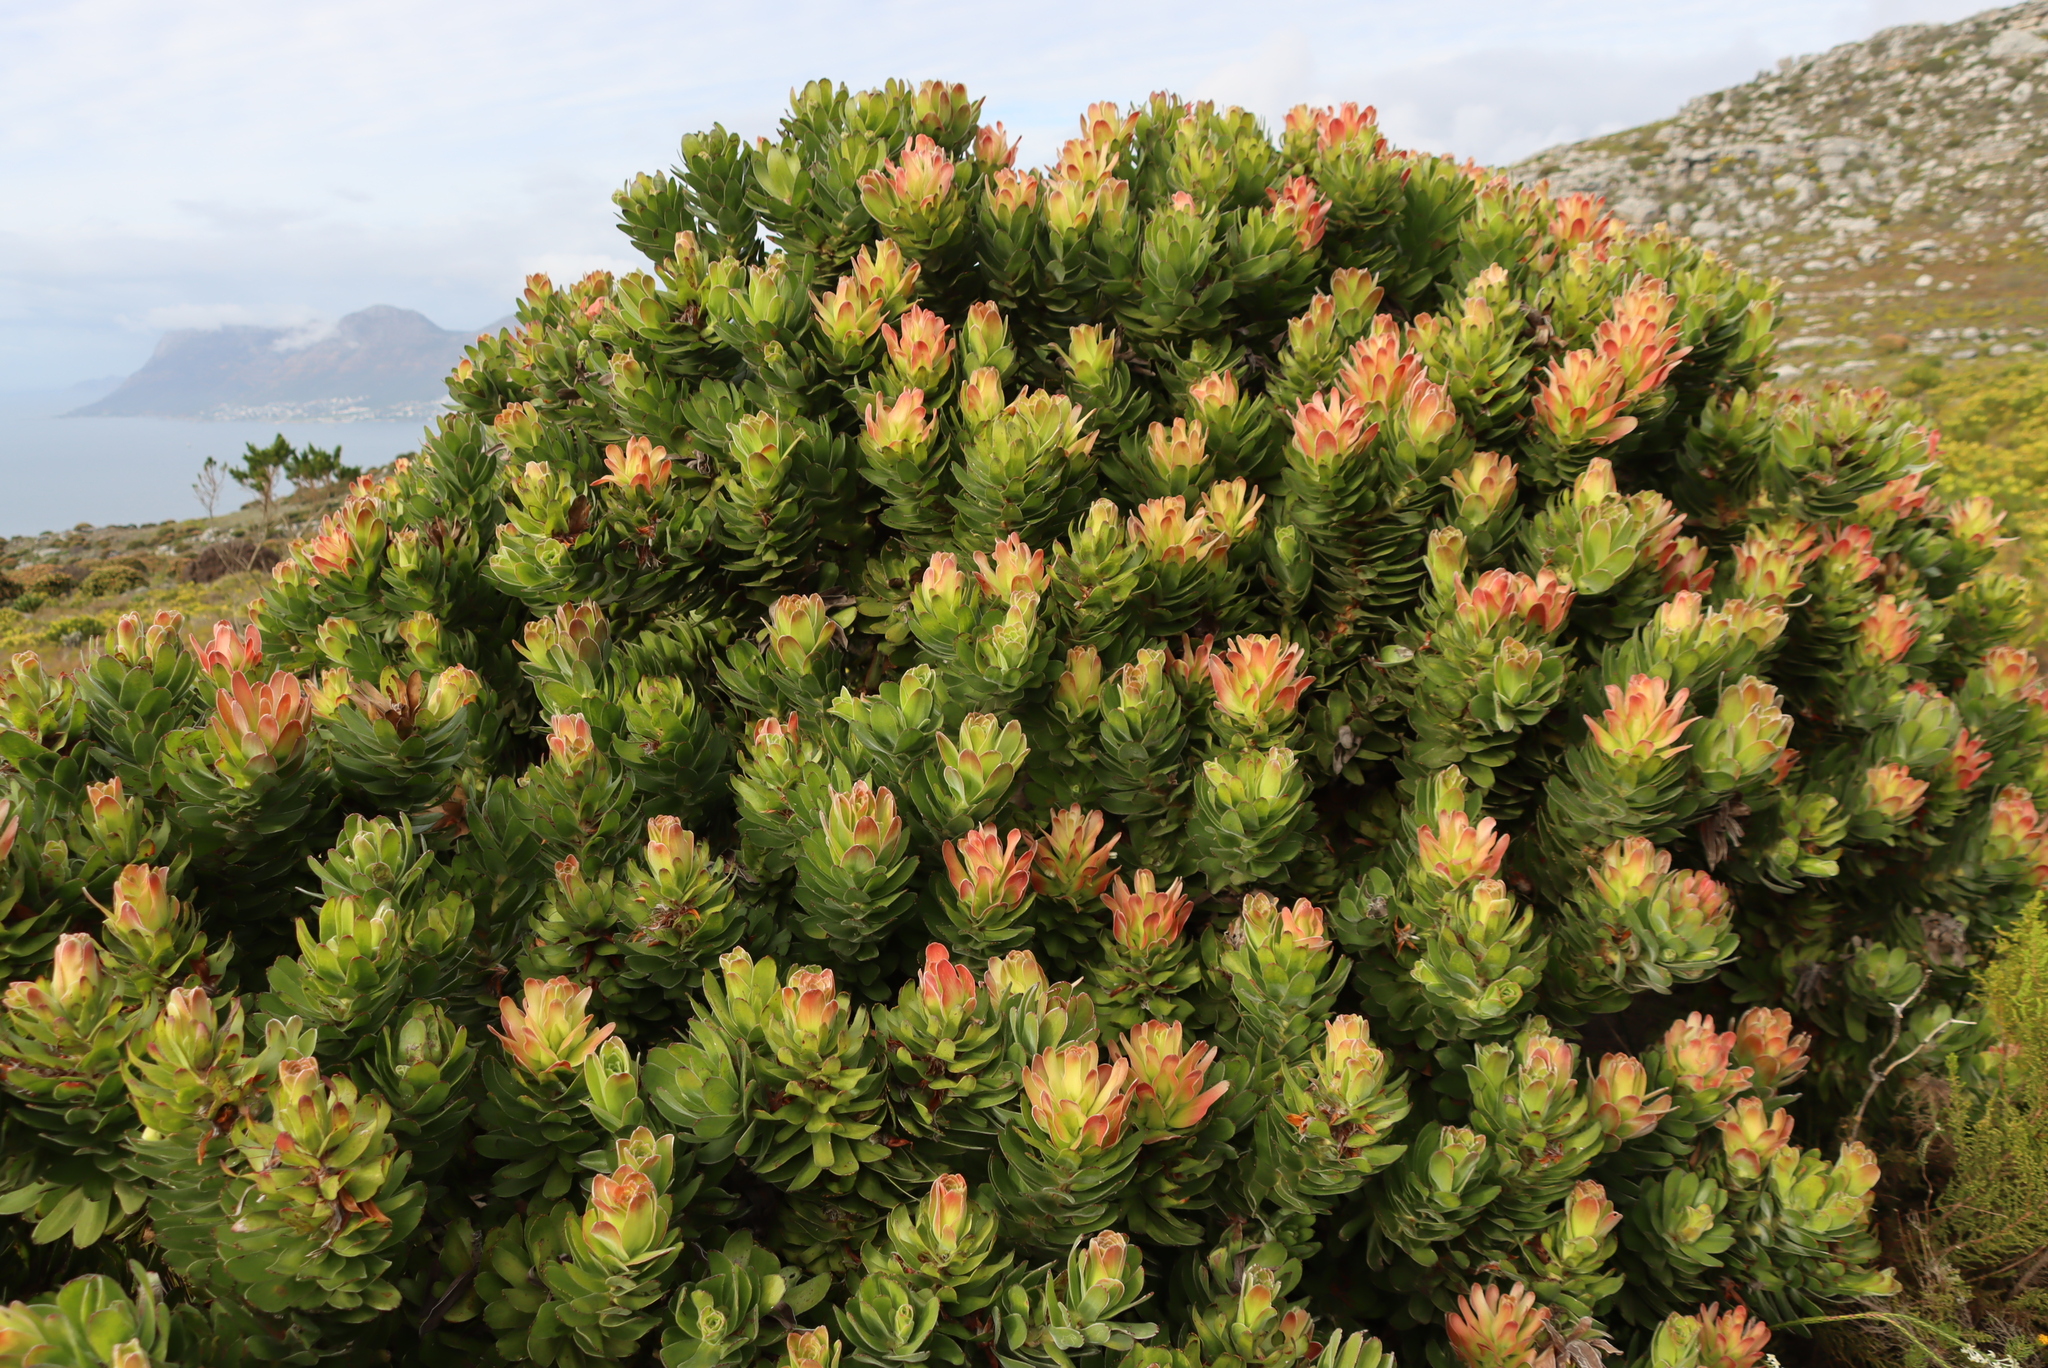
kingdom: Plantae
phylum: Tracheophyta
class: Magnoliopsida
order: Proteales
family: Proteaceae
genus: Mimetes
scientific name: Mimetes fimbriifolius
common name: Fringed bottlebrush
